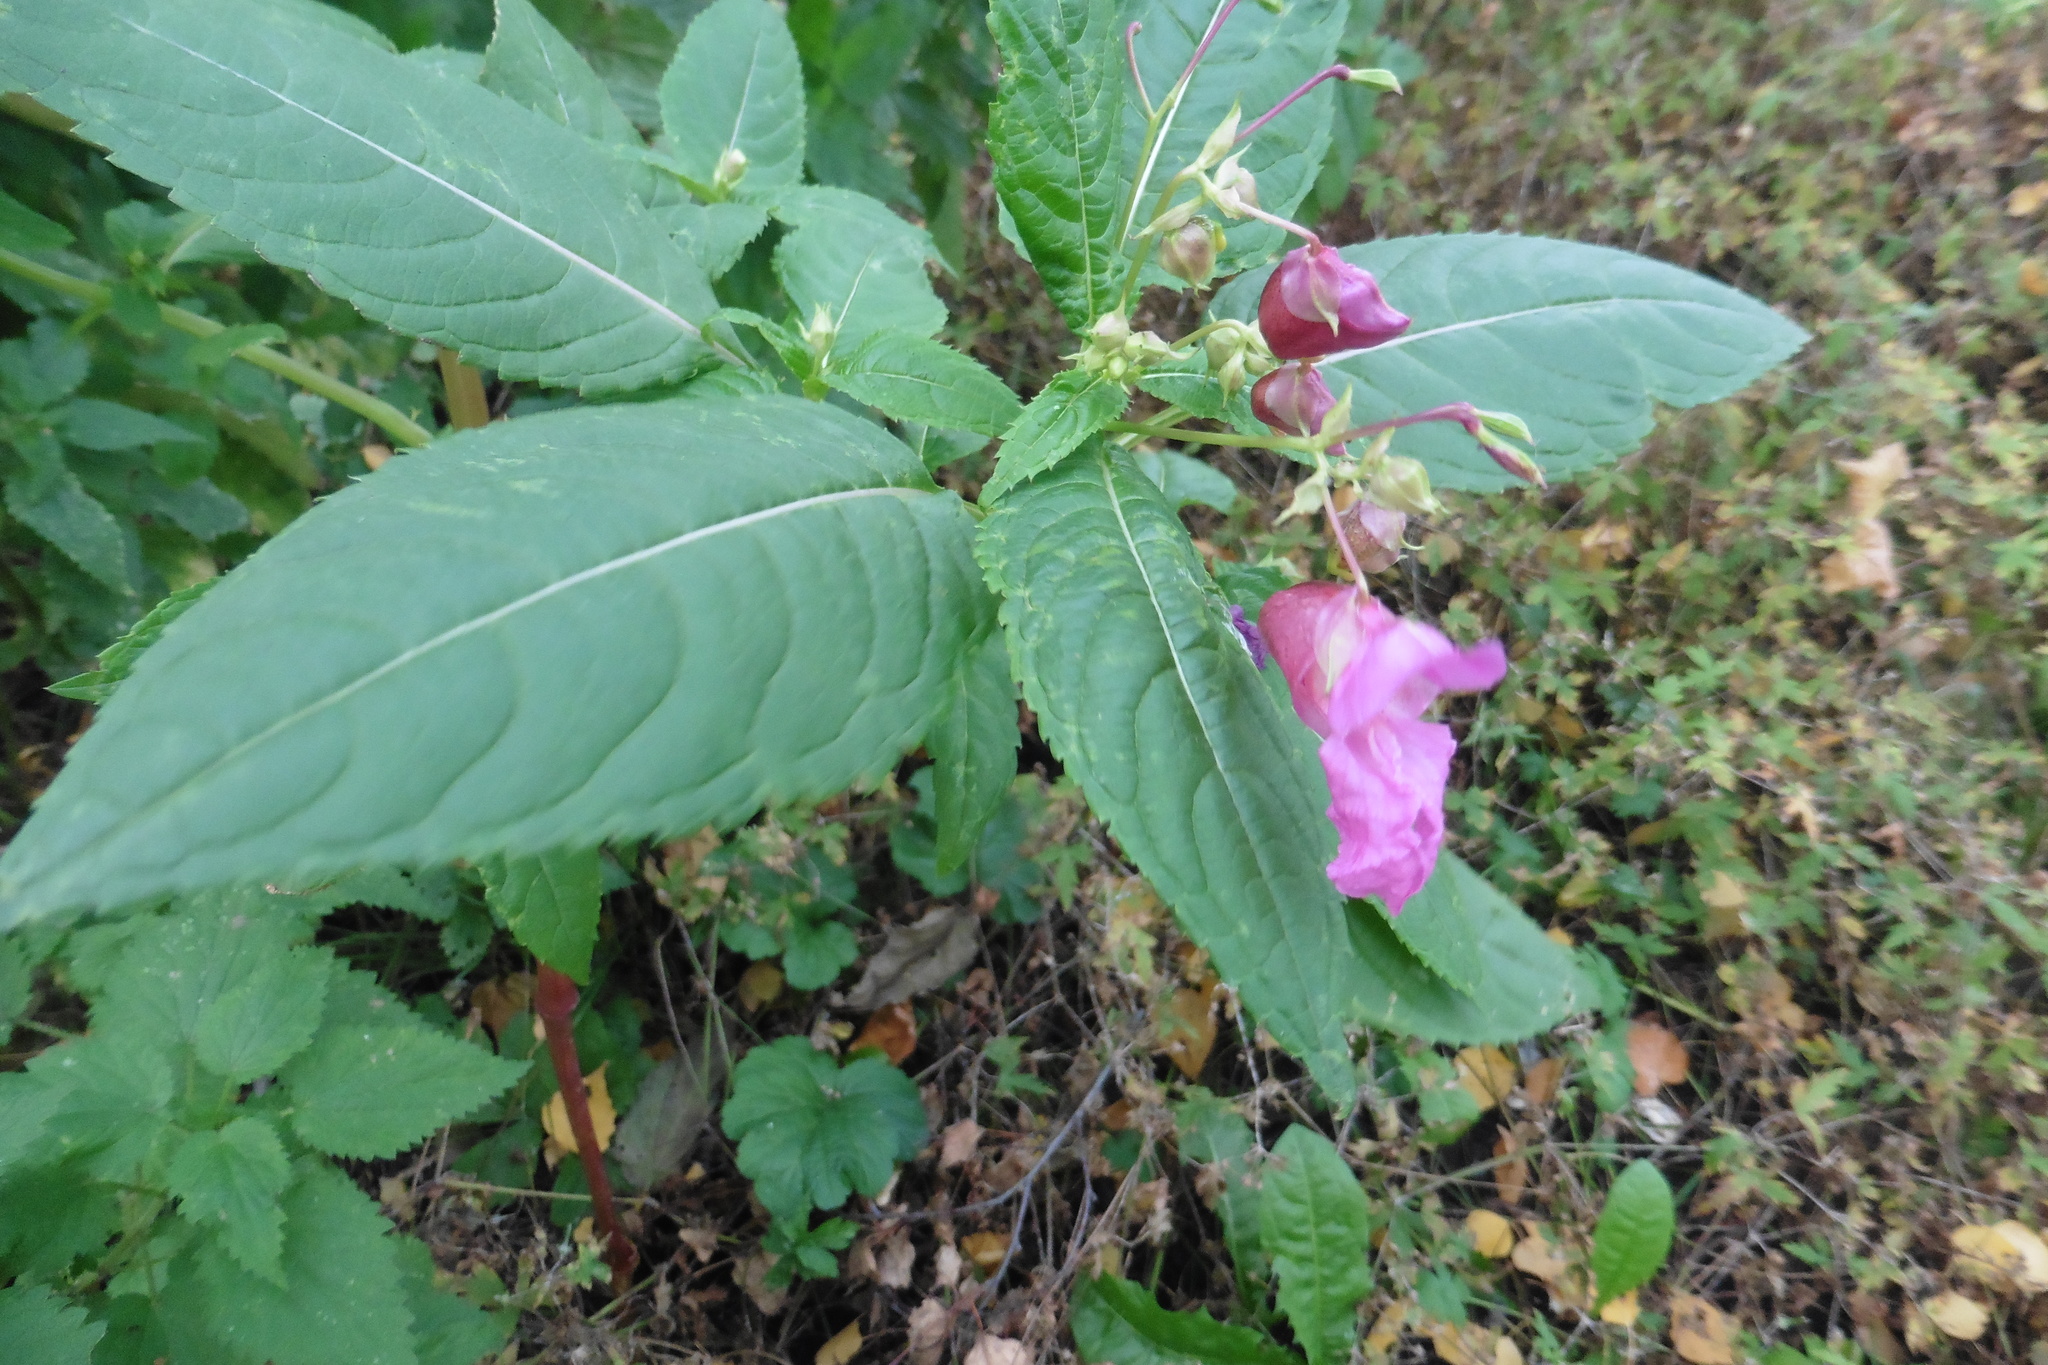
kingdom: Plantae
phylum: Tracheophyta
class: Magnoliopsida
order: Ericales
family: Balsaminaceae
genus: Impatiens
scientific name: Impatiens glandulifera
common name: Himalayan balsam
